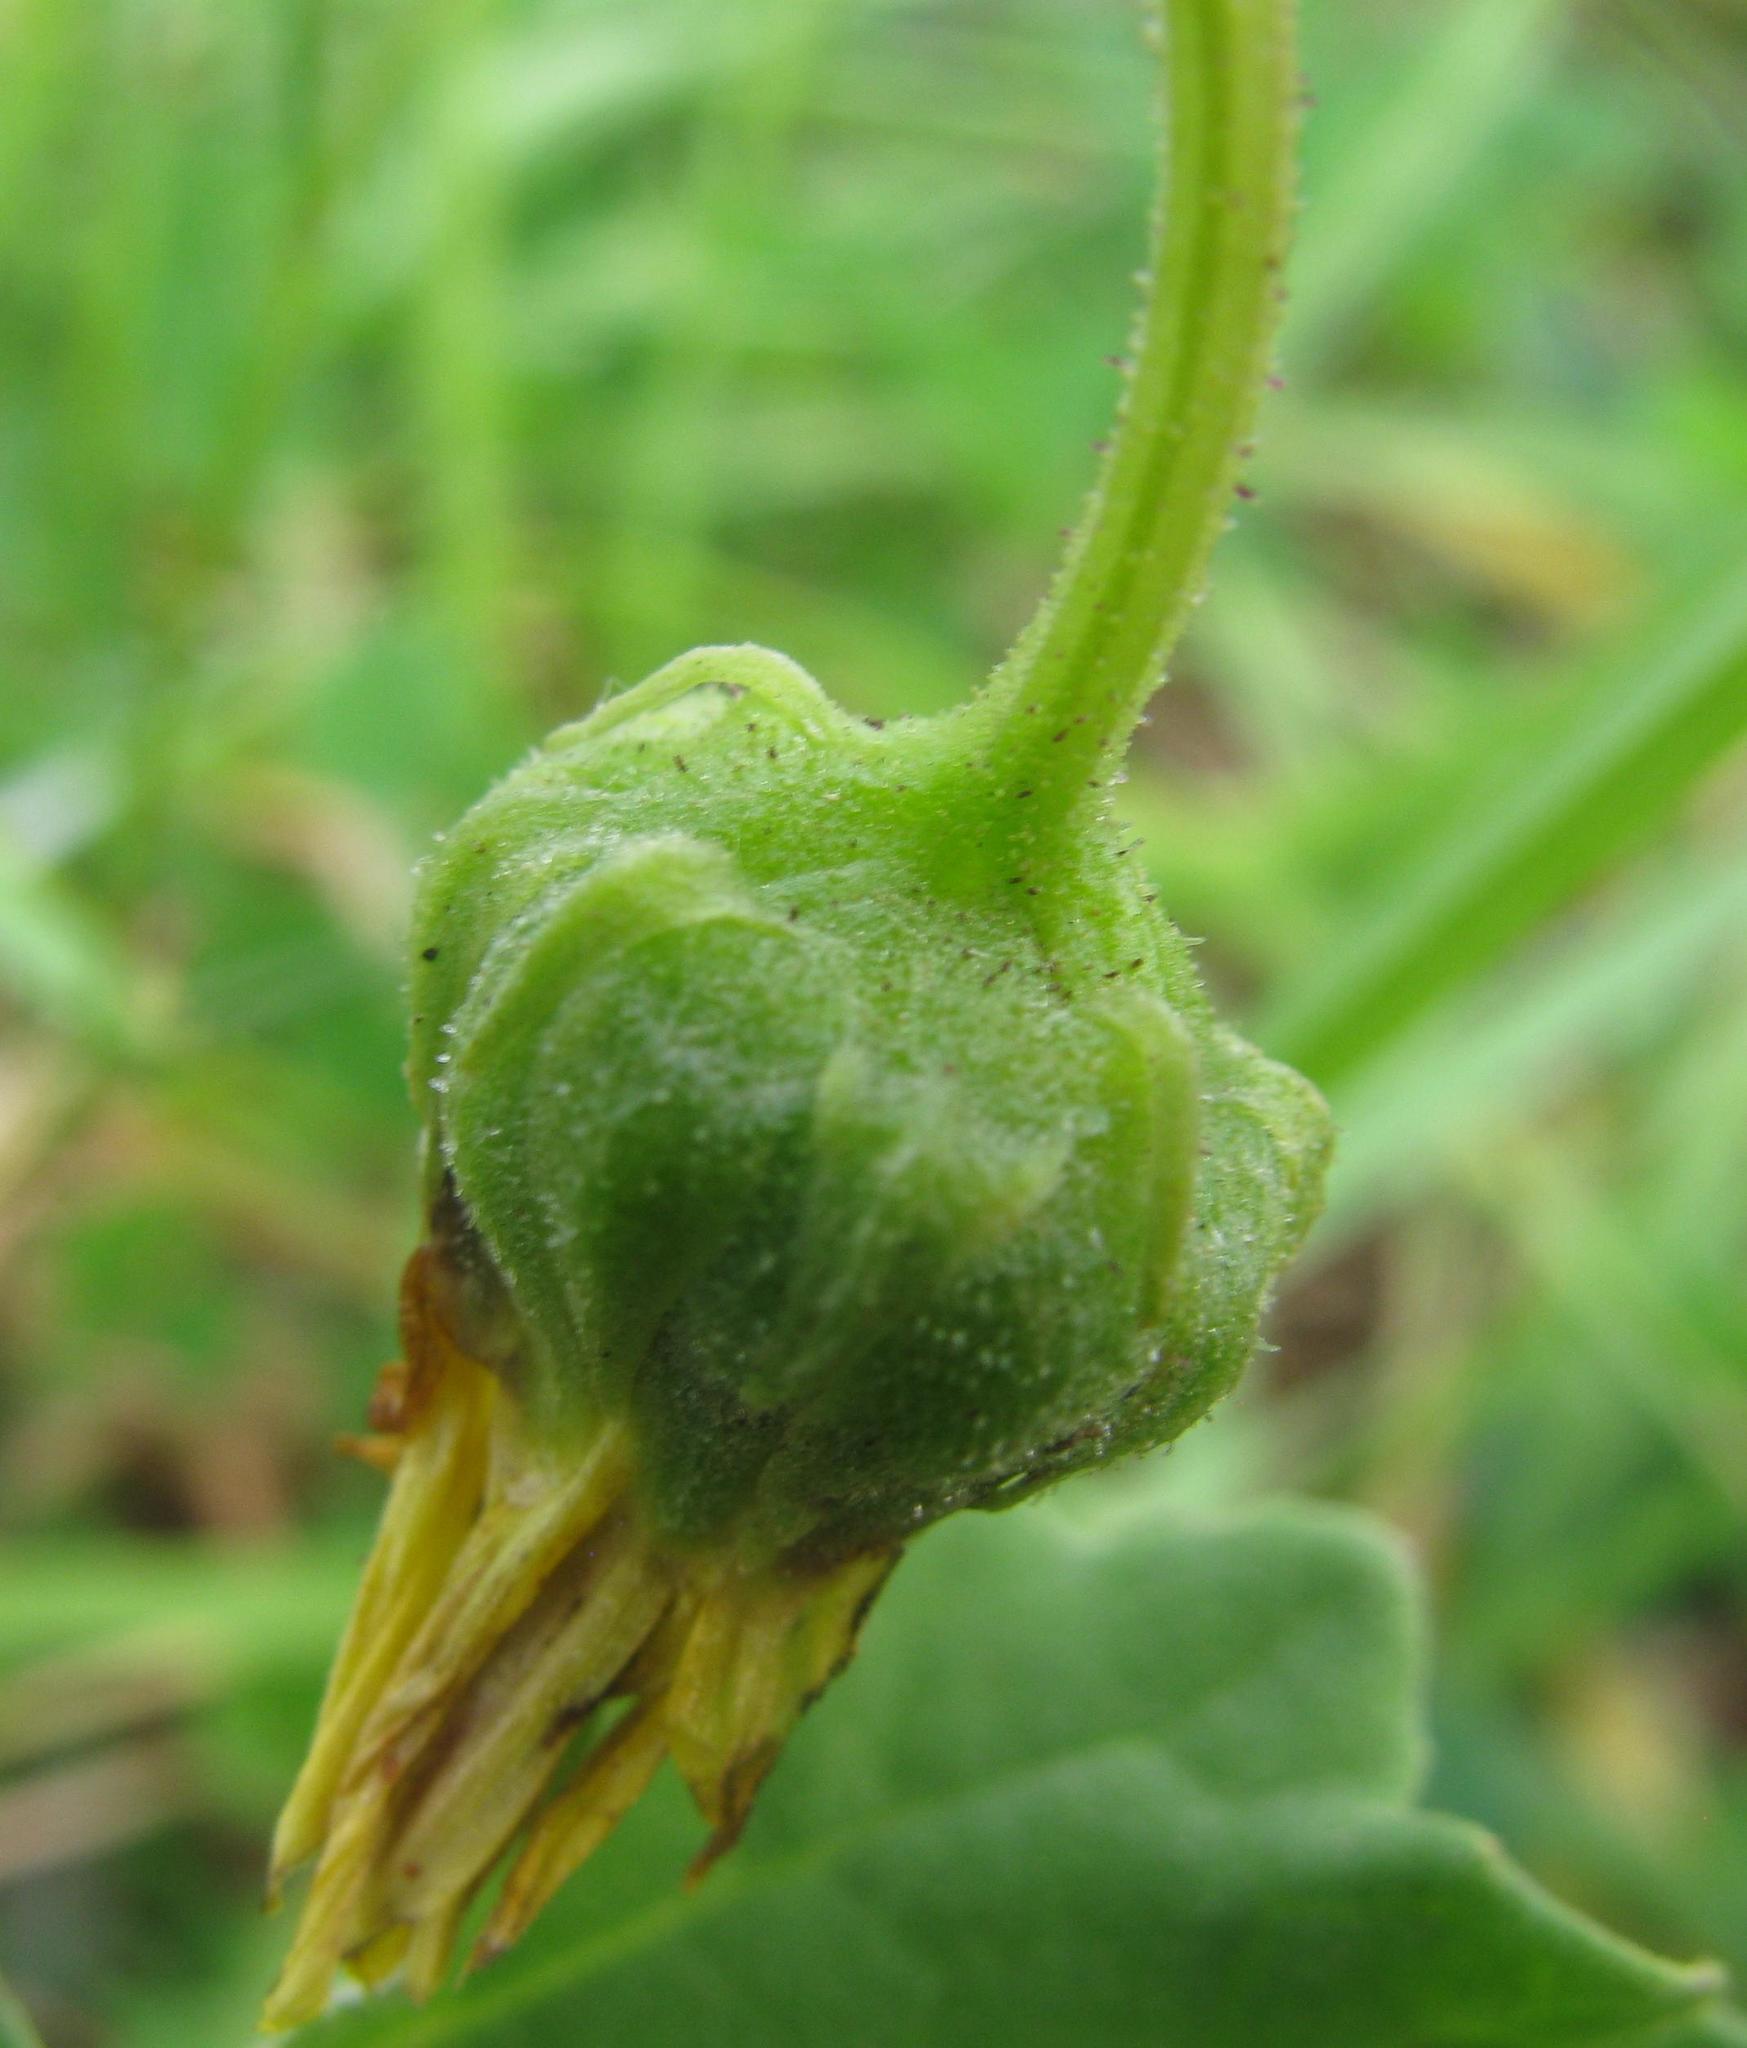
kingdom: Plantae
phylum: Tracheophyta
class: Magnoliopsida
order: Asterales
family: Asteraceae
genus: Arctotis
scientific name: Arctotis arctotoides
